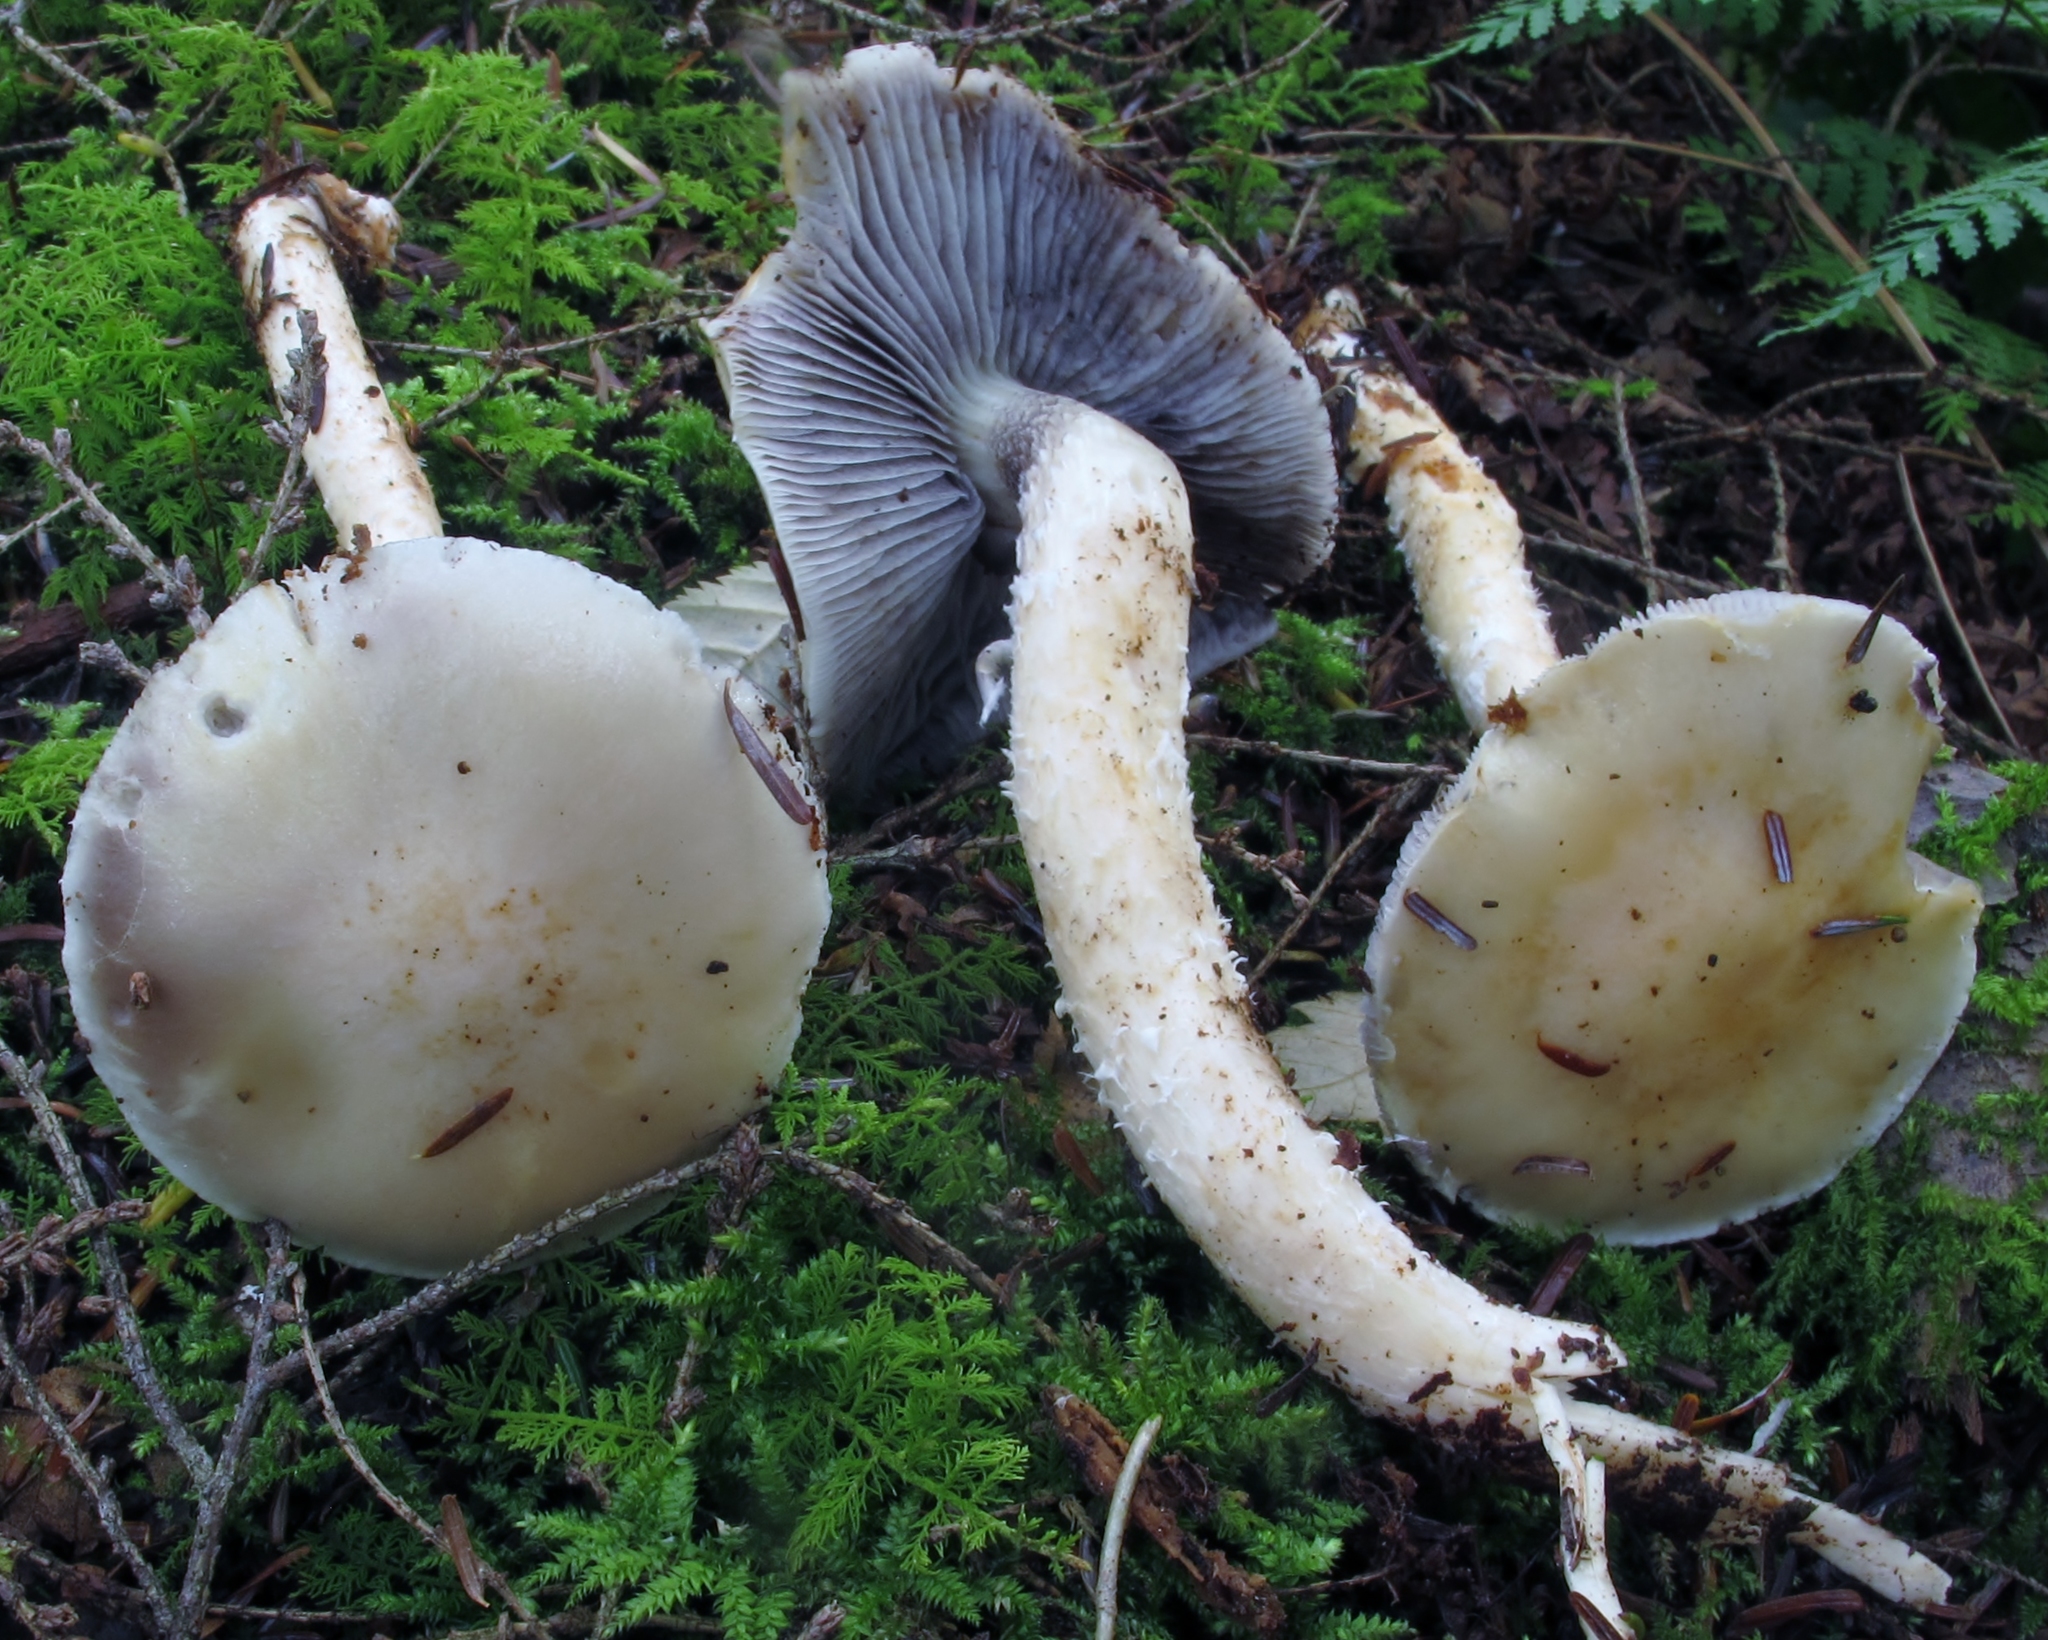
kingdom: Fungi
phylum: Basidiomycota
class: Agaricomycetes
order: Agaricales
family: Strophariaceae
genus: Stropharia
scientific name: Stropharia
